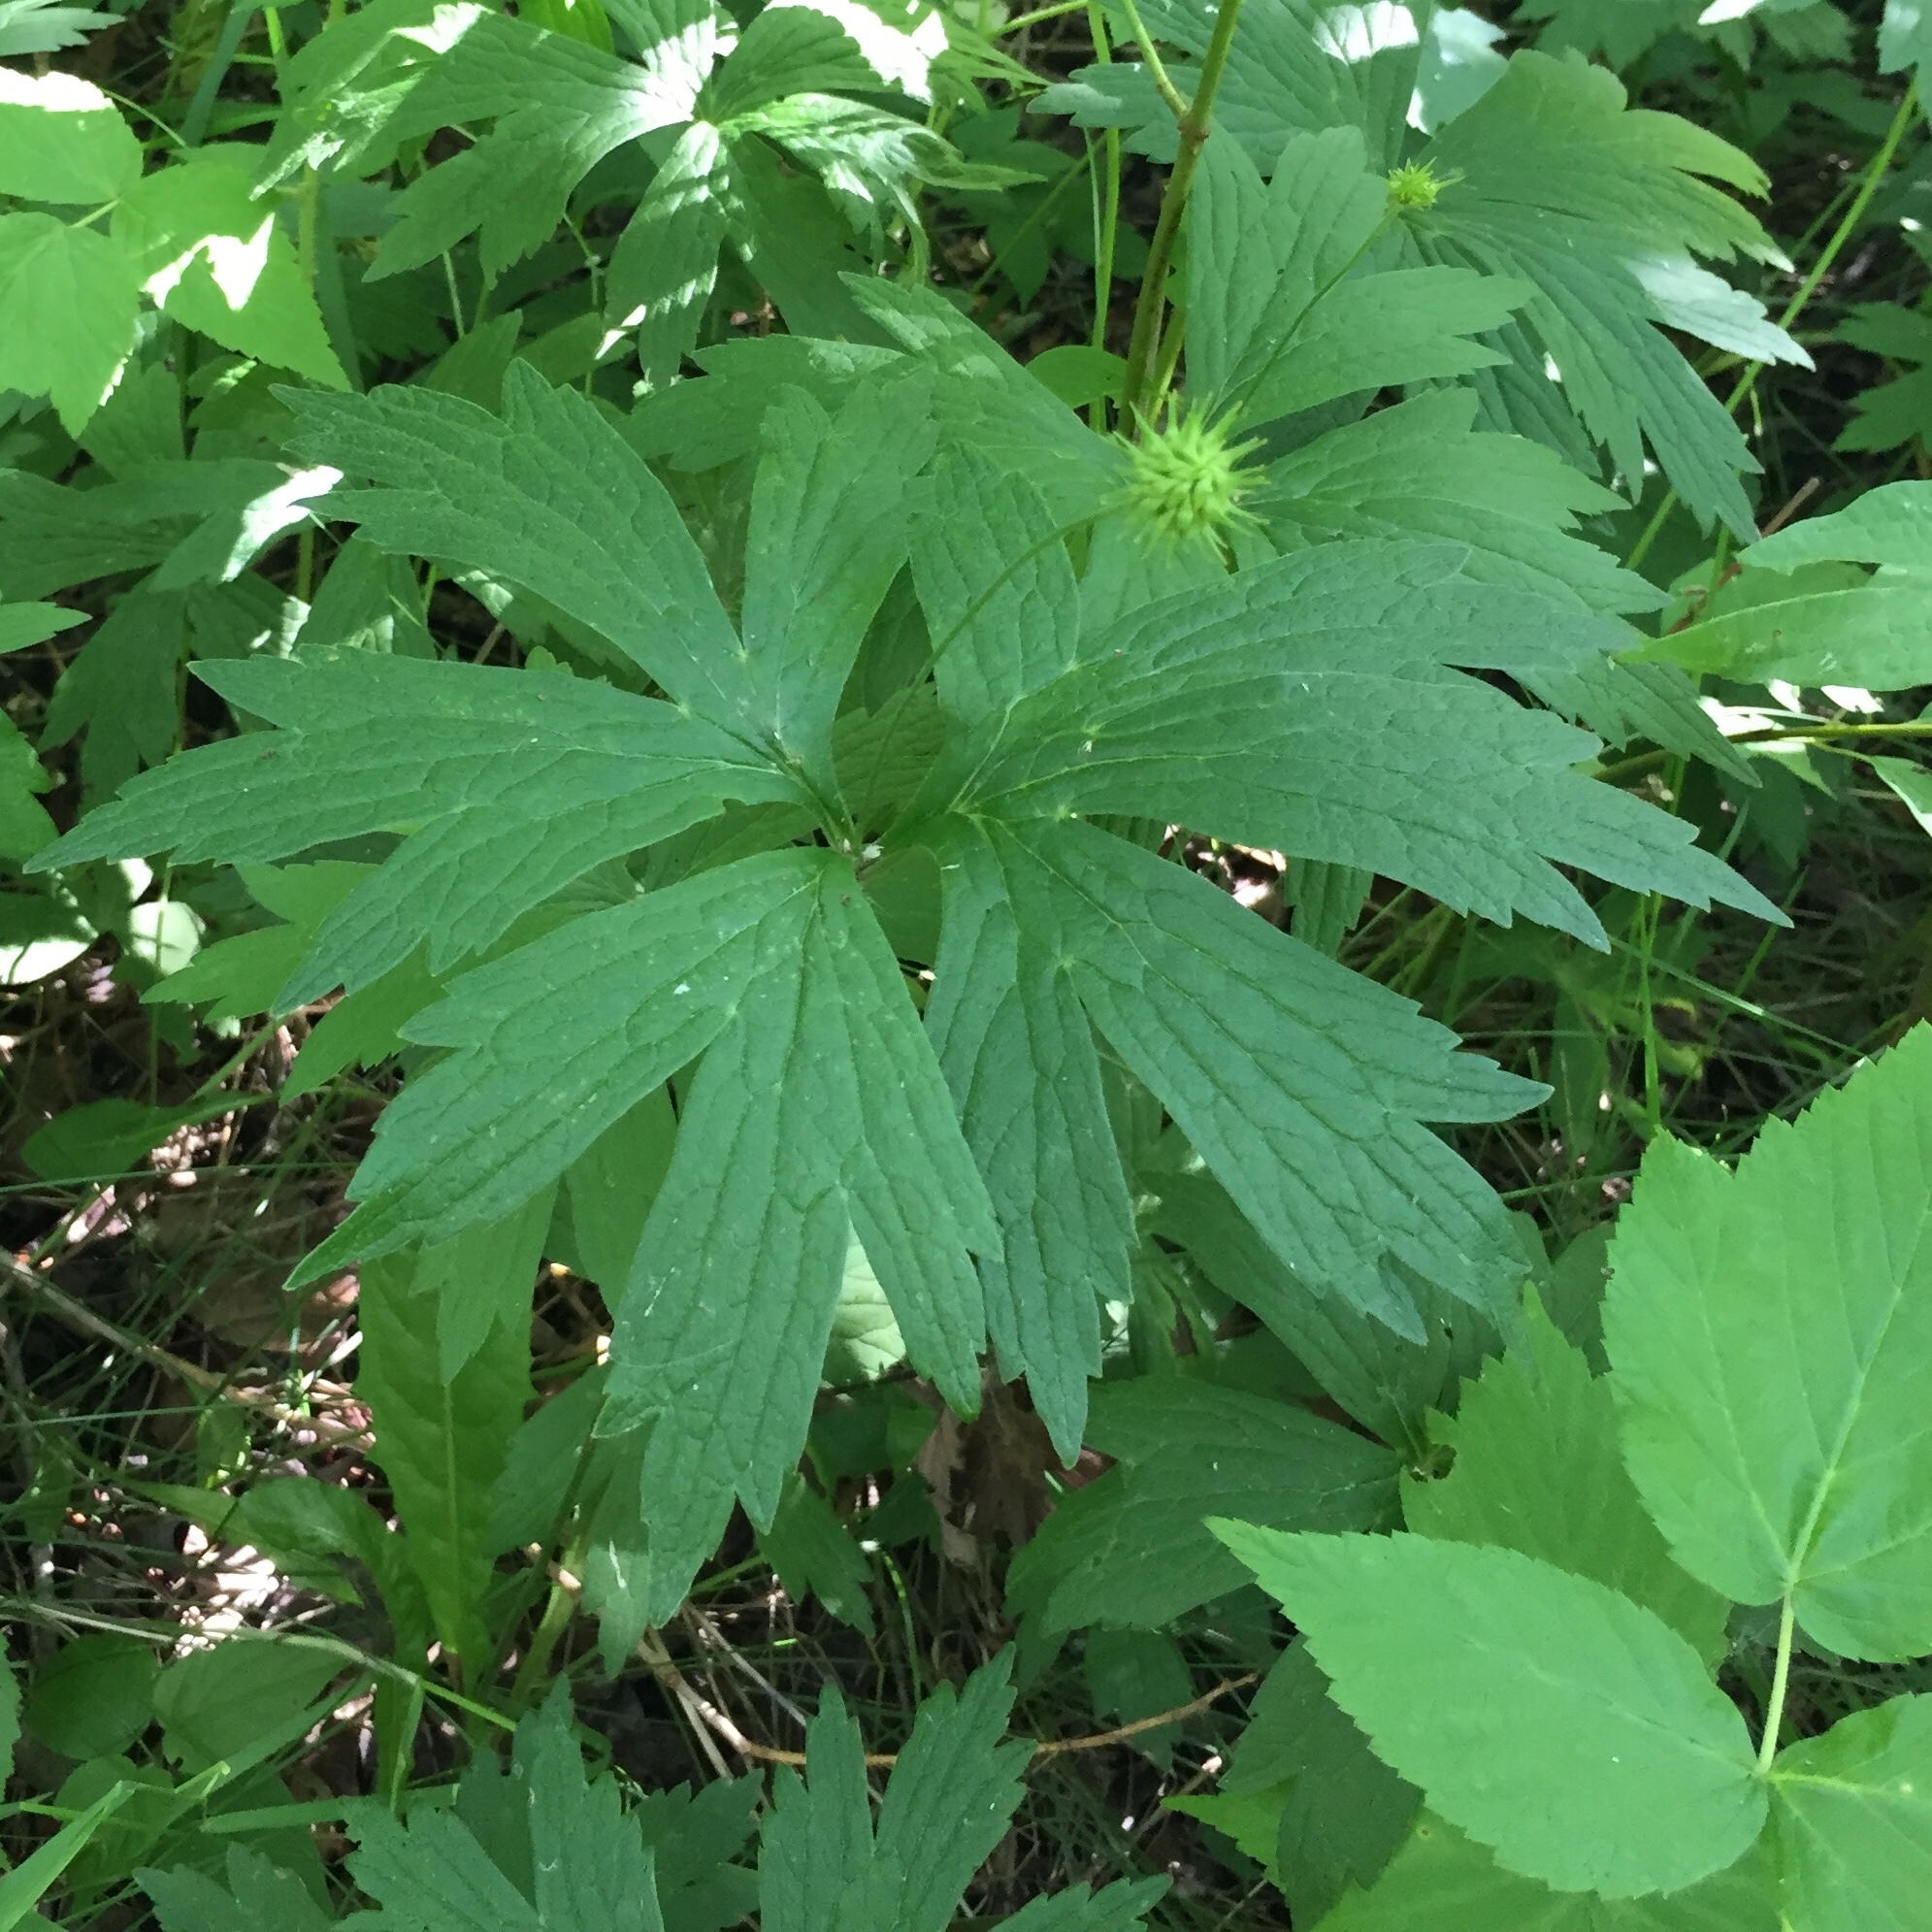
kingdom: Plantae
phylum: Tracheophyta
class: Magnoliopsida
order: Ranunculales
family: Ranunculaceae
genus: Anemonastrum
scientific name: Anemonastrum canadense
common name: Canada anemone
